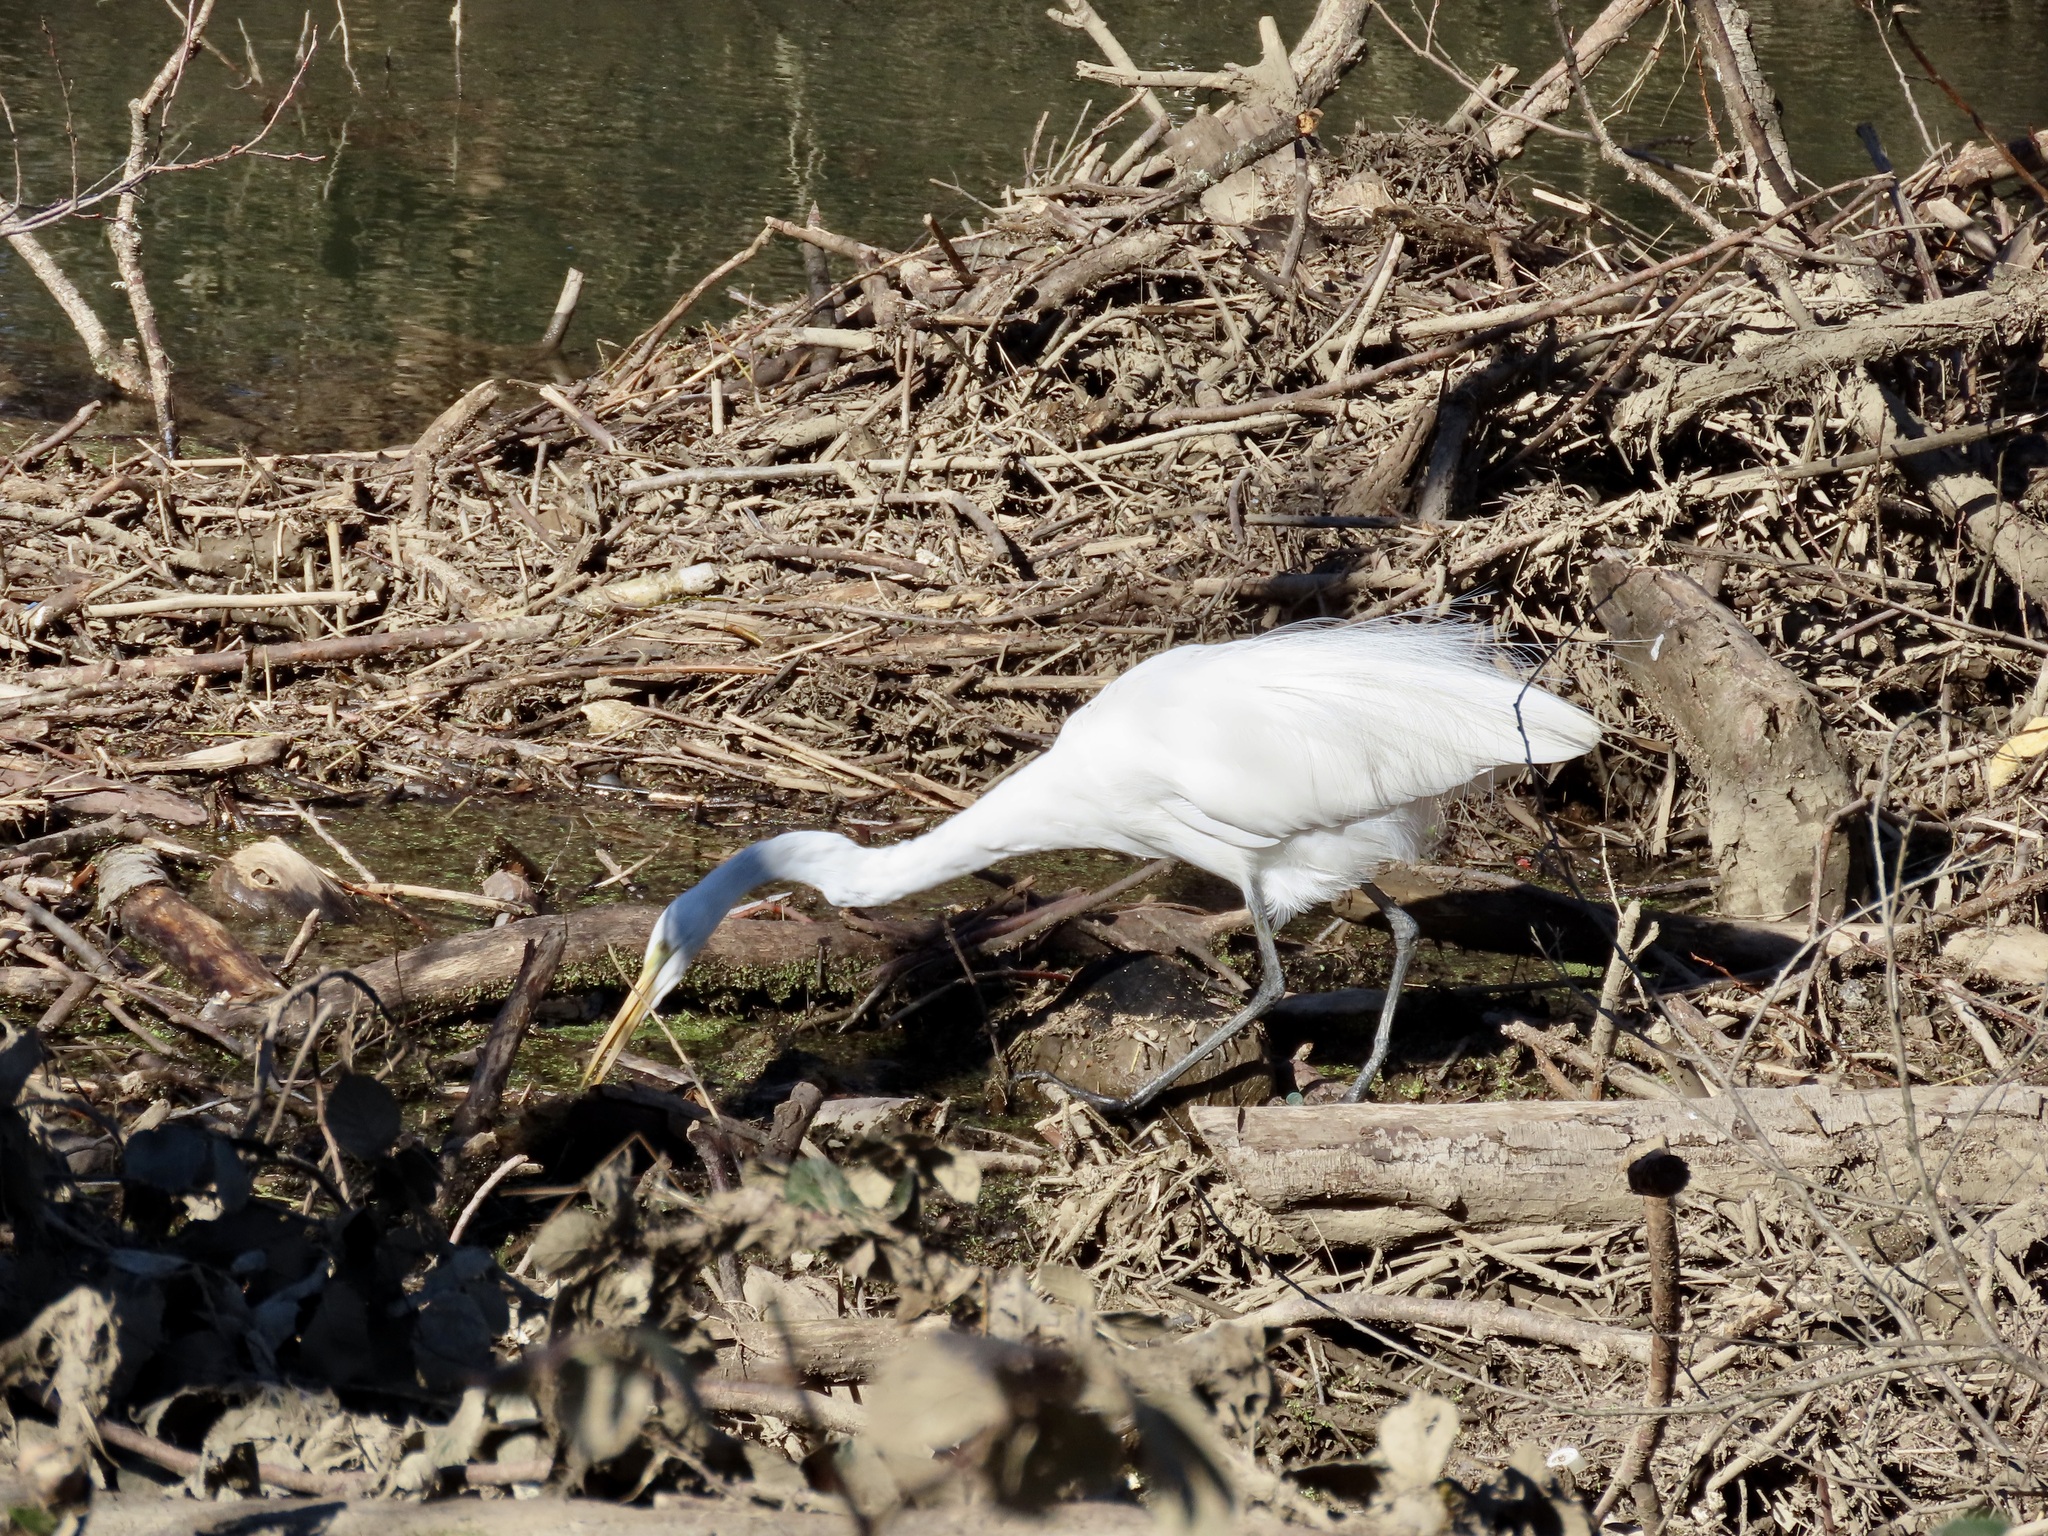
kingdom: Animalia
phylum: Chordata
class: Aves
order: Pelecaniformes
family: Ardeidae
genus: Ardea
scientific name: Ardea alba
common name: Great egret
